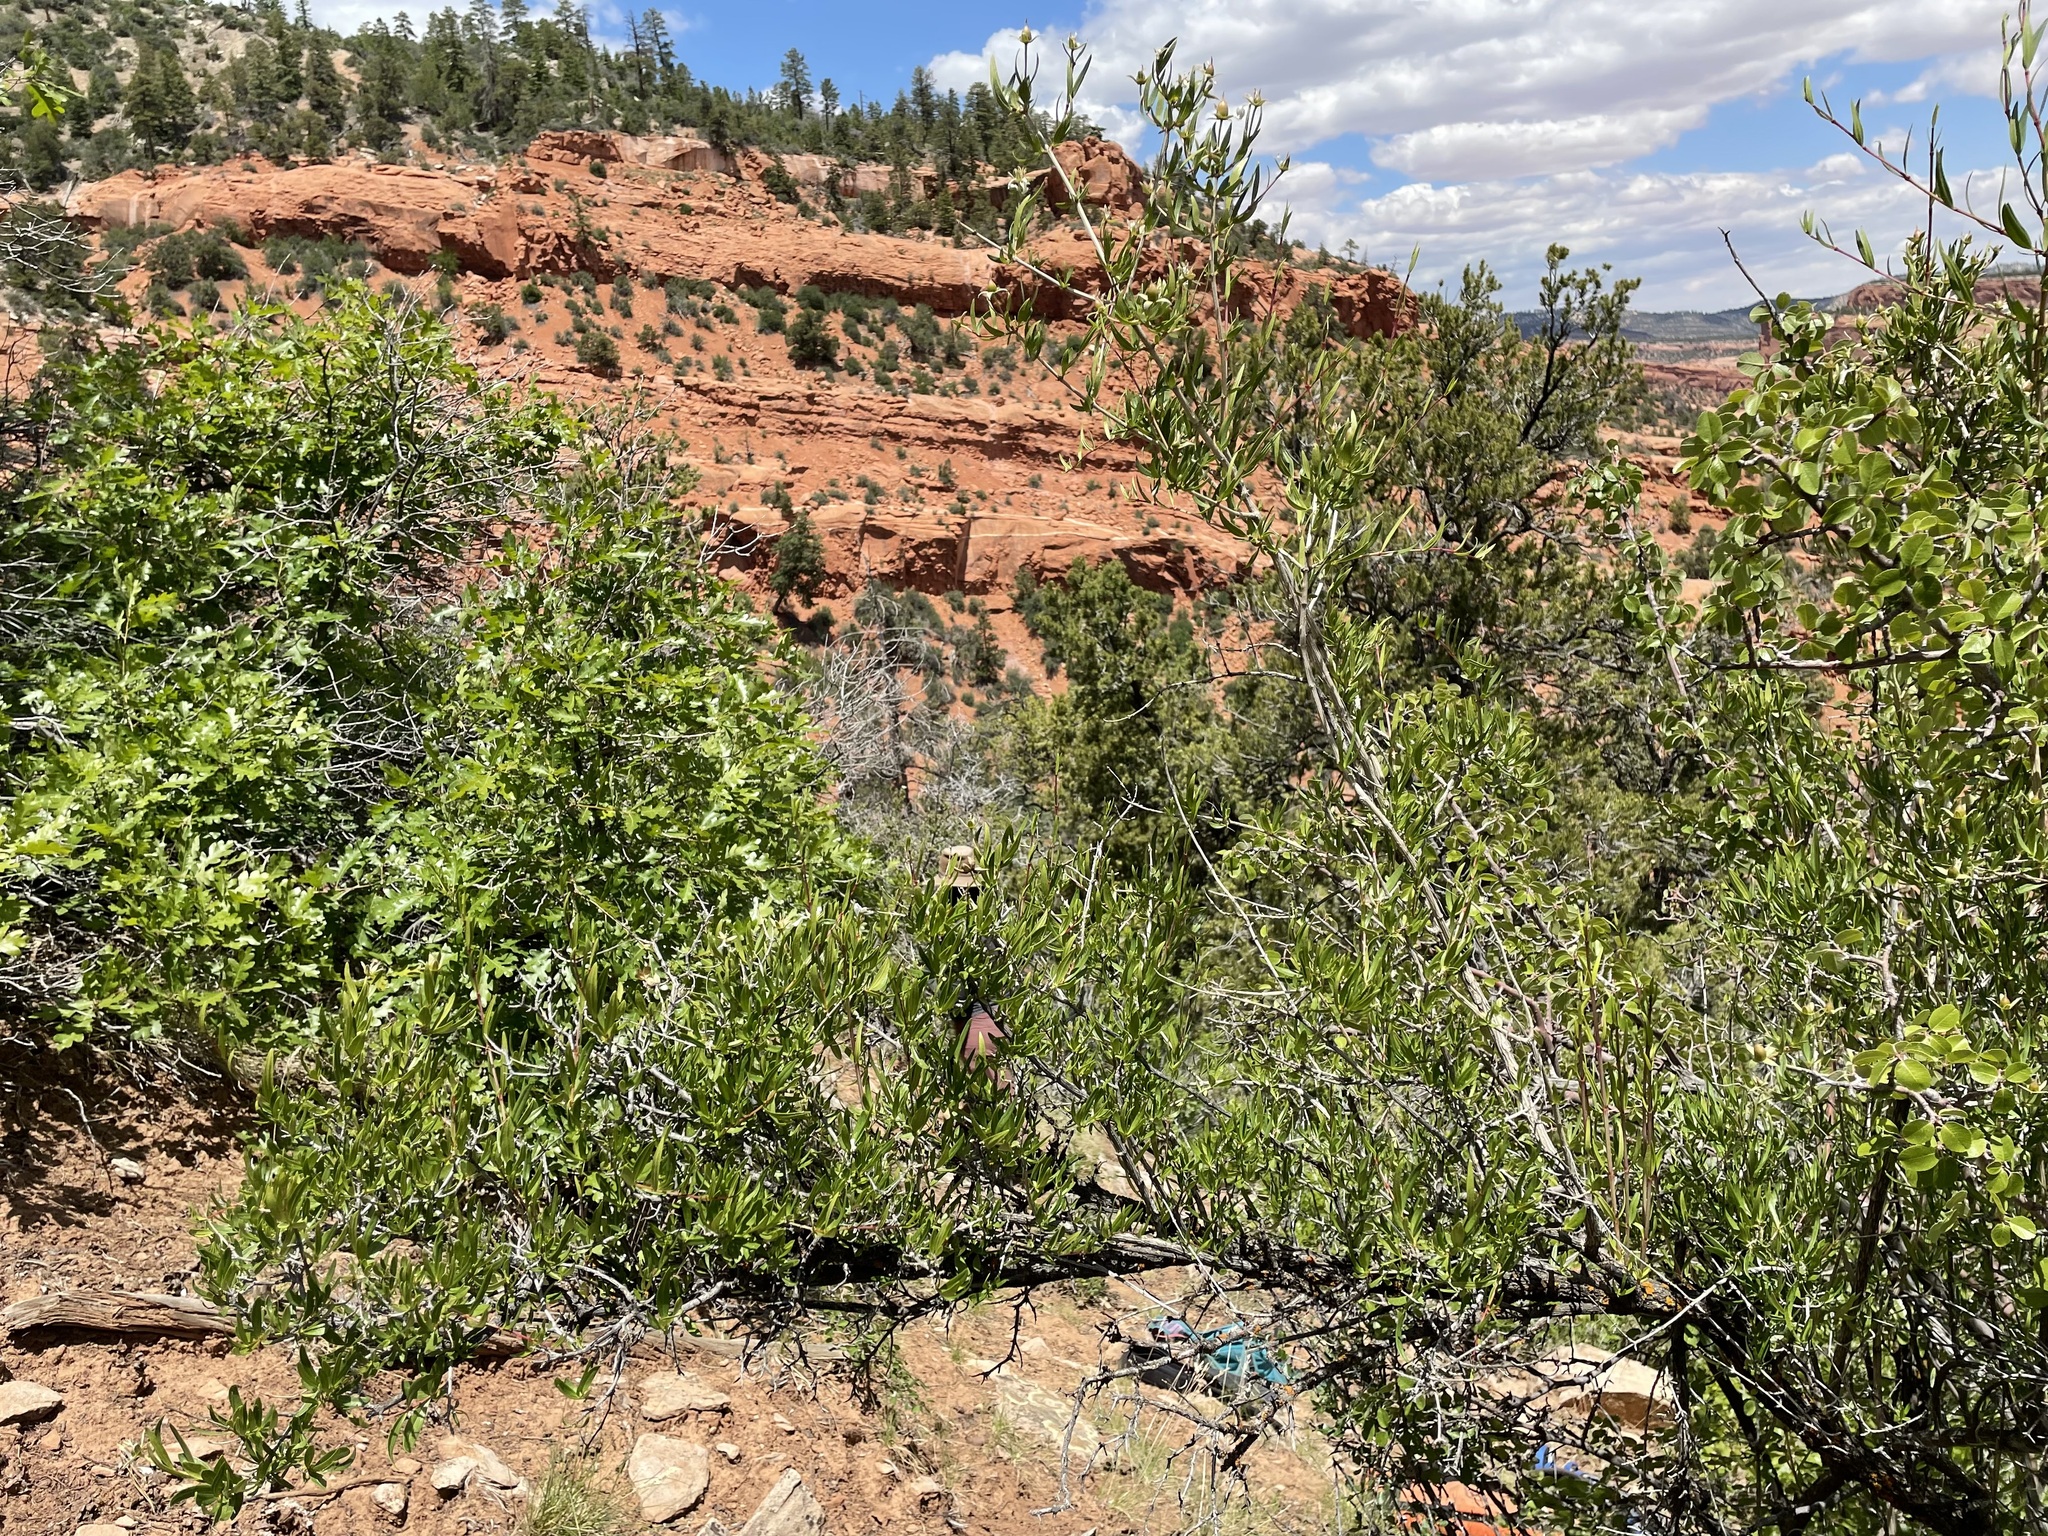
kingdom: Plantae
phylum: Tracheophyta
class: Magnoliopsida
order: Cornales
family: Hydrangeaceae
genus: Fendlera
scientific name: Fendlera rupicola
